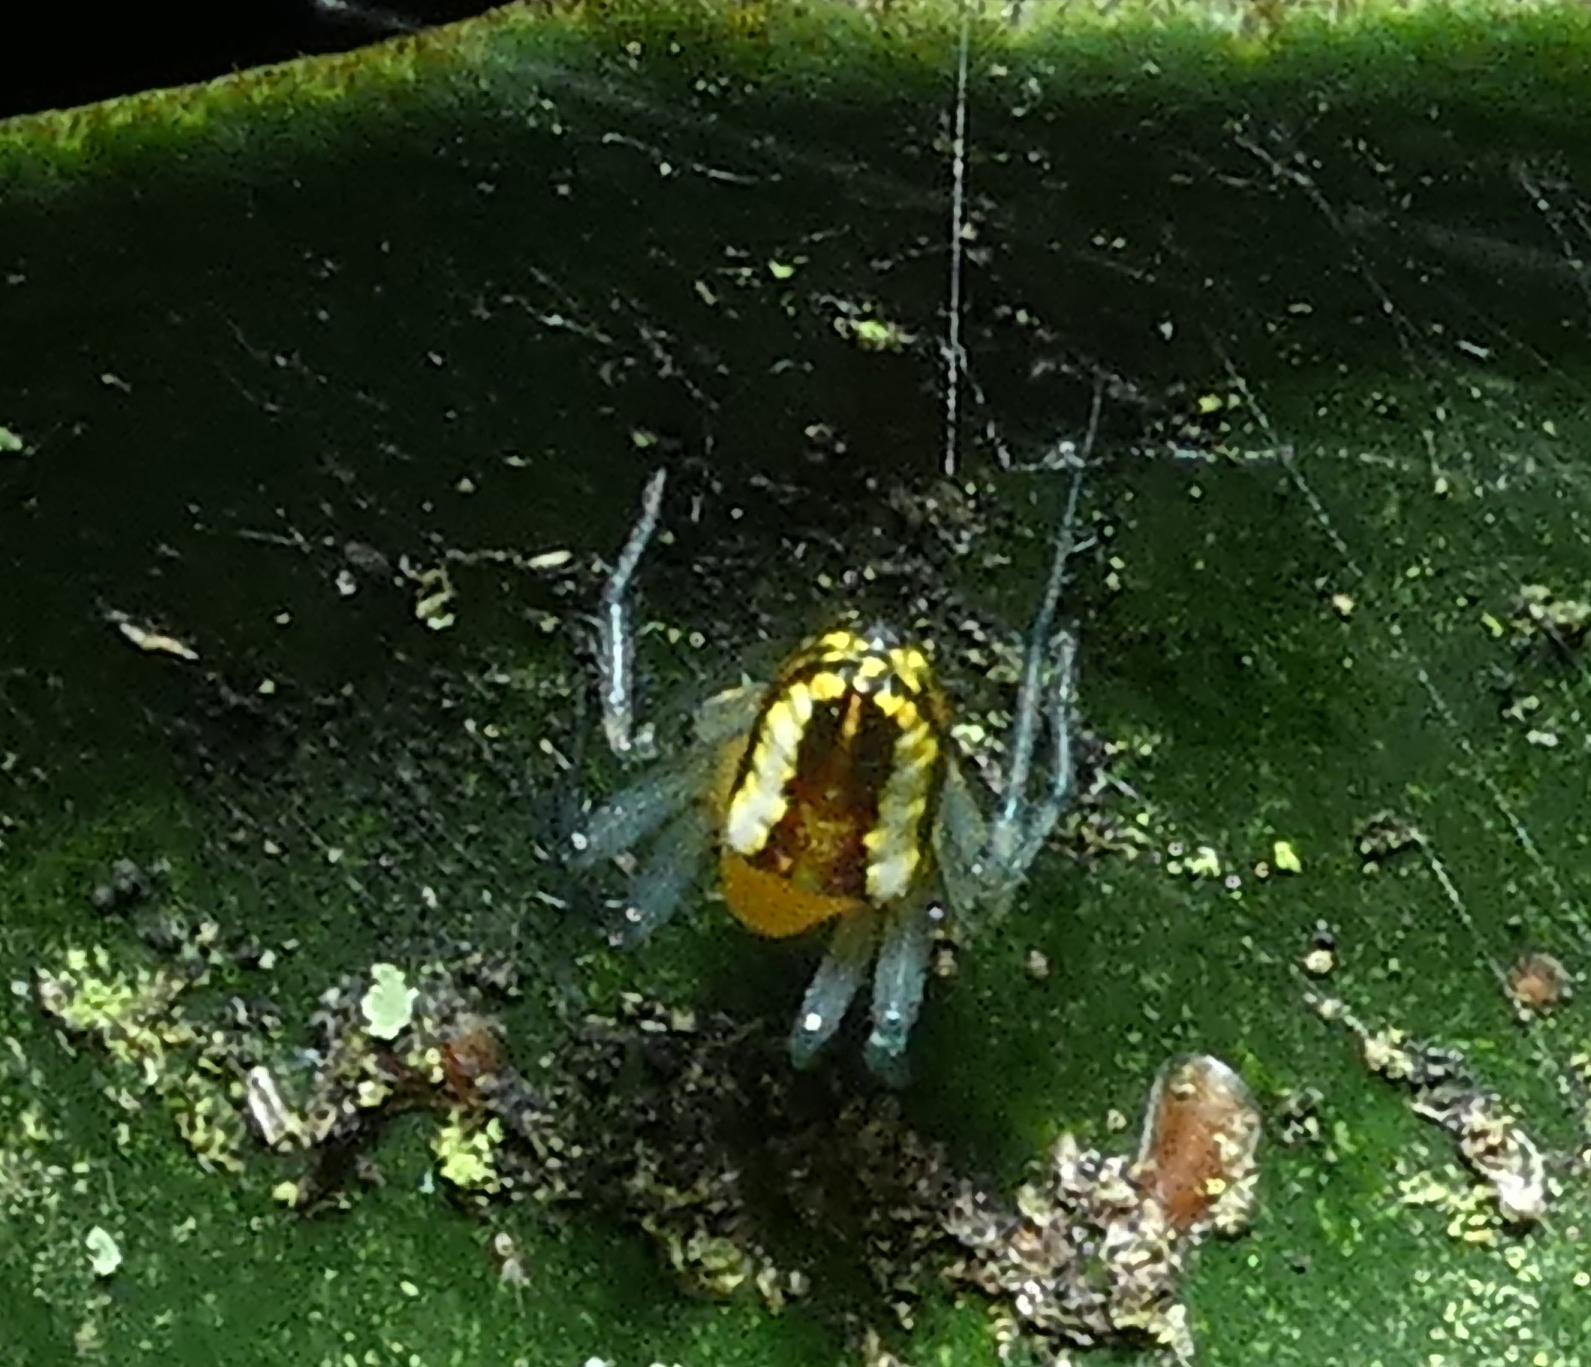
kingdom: Animalia
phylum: Arthropoda
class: Arachnida
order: Araneae
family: Araneidae
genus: Alpaida
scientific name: Alpaida bicornuta
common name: Orb weavers
